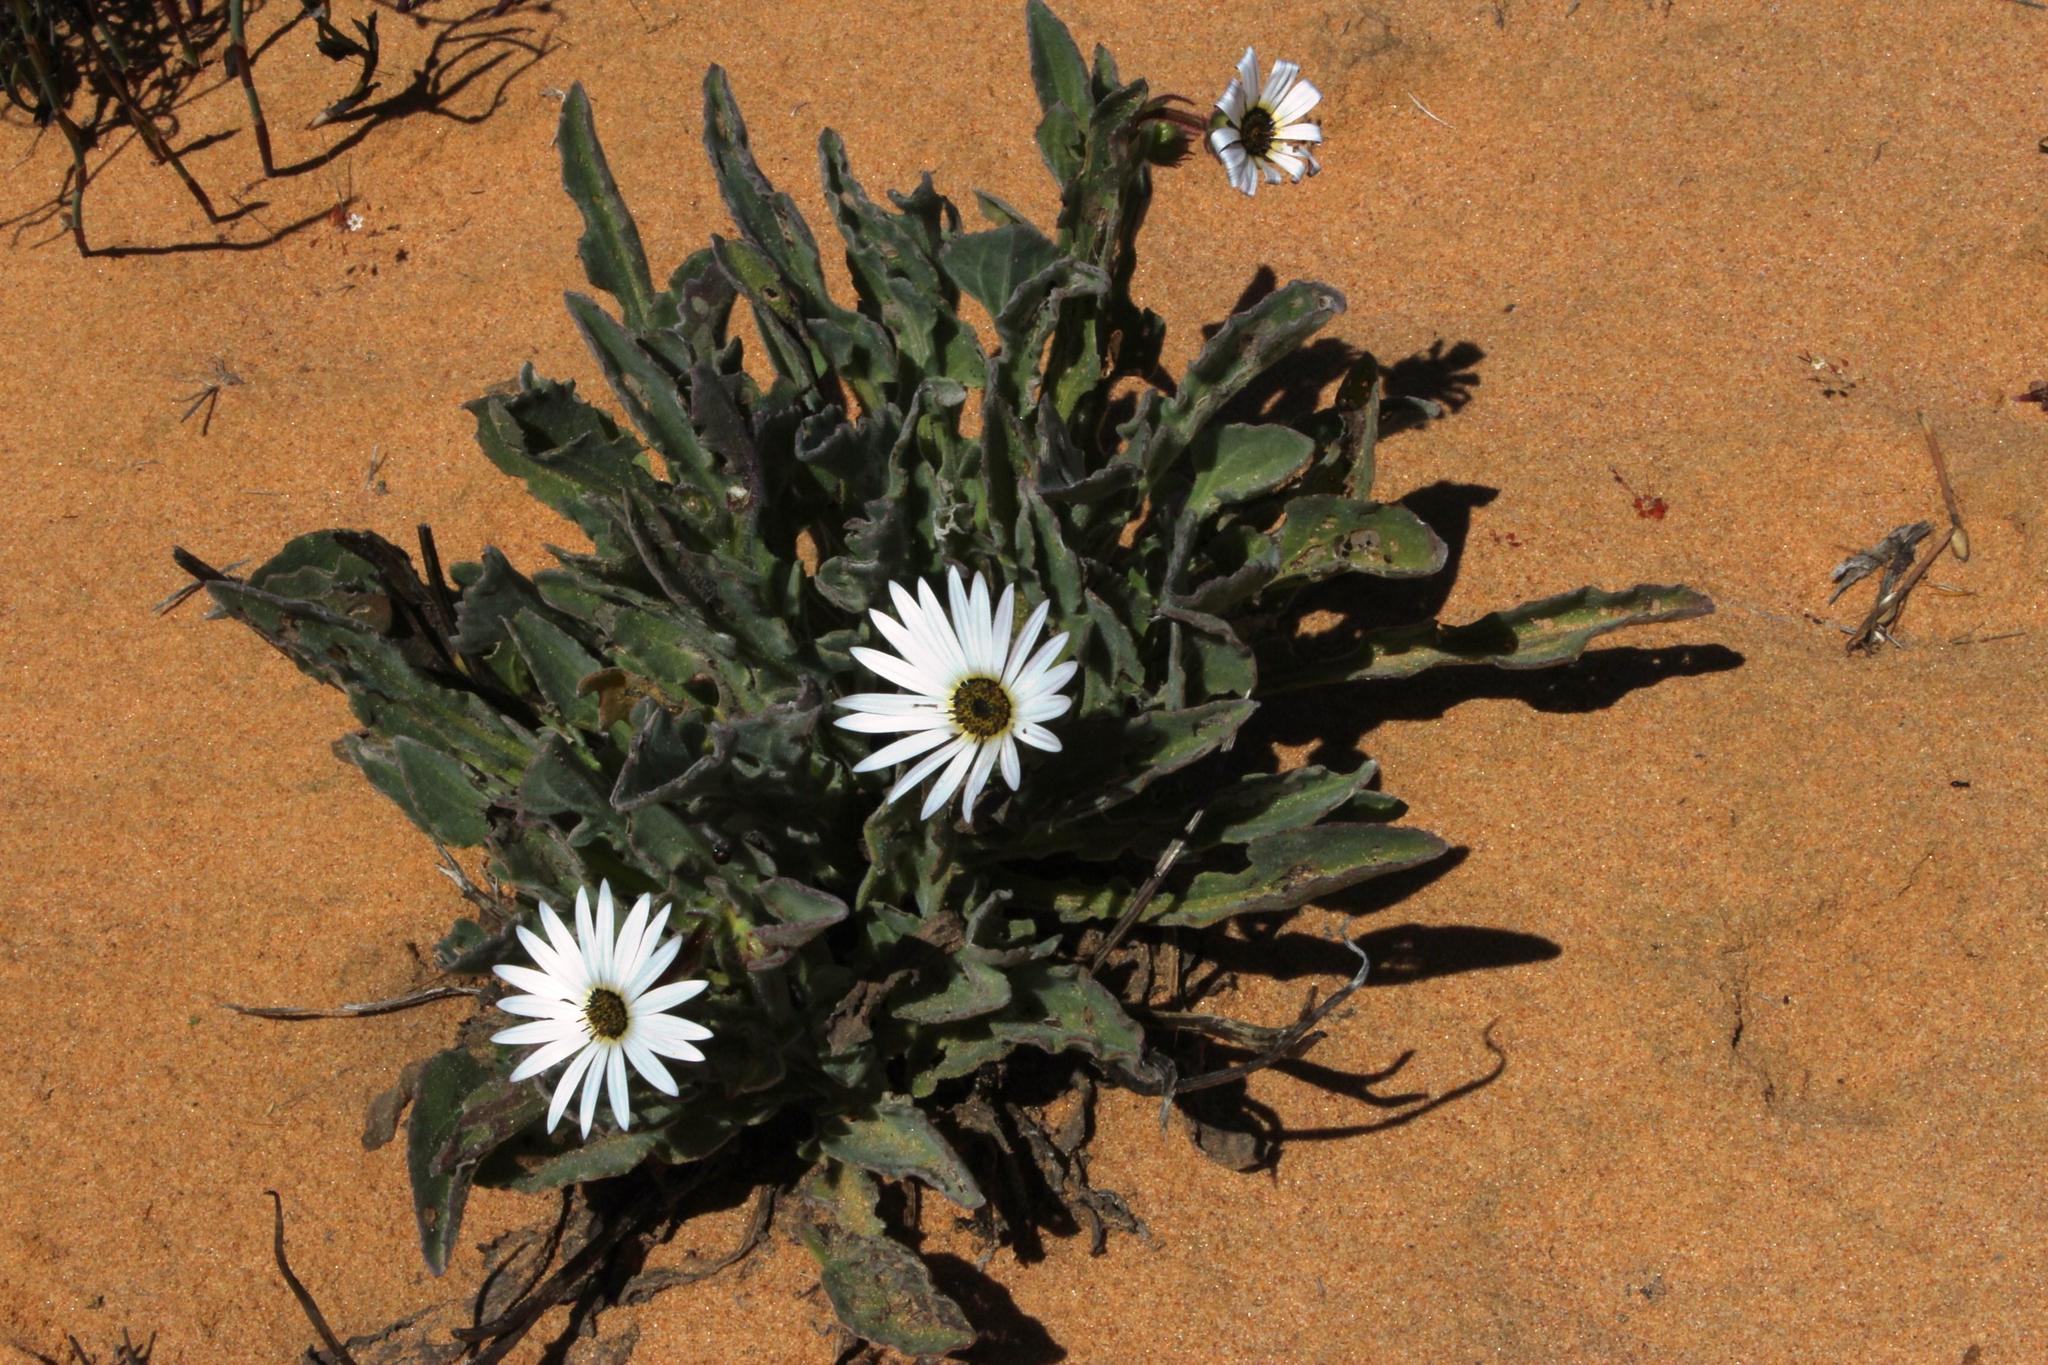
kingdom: Plantae
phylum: Tracheophyta
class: Magnoliopsida
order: Asterales
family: Asteraceae
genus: Arctotis
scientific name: Arctotis decurrens
